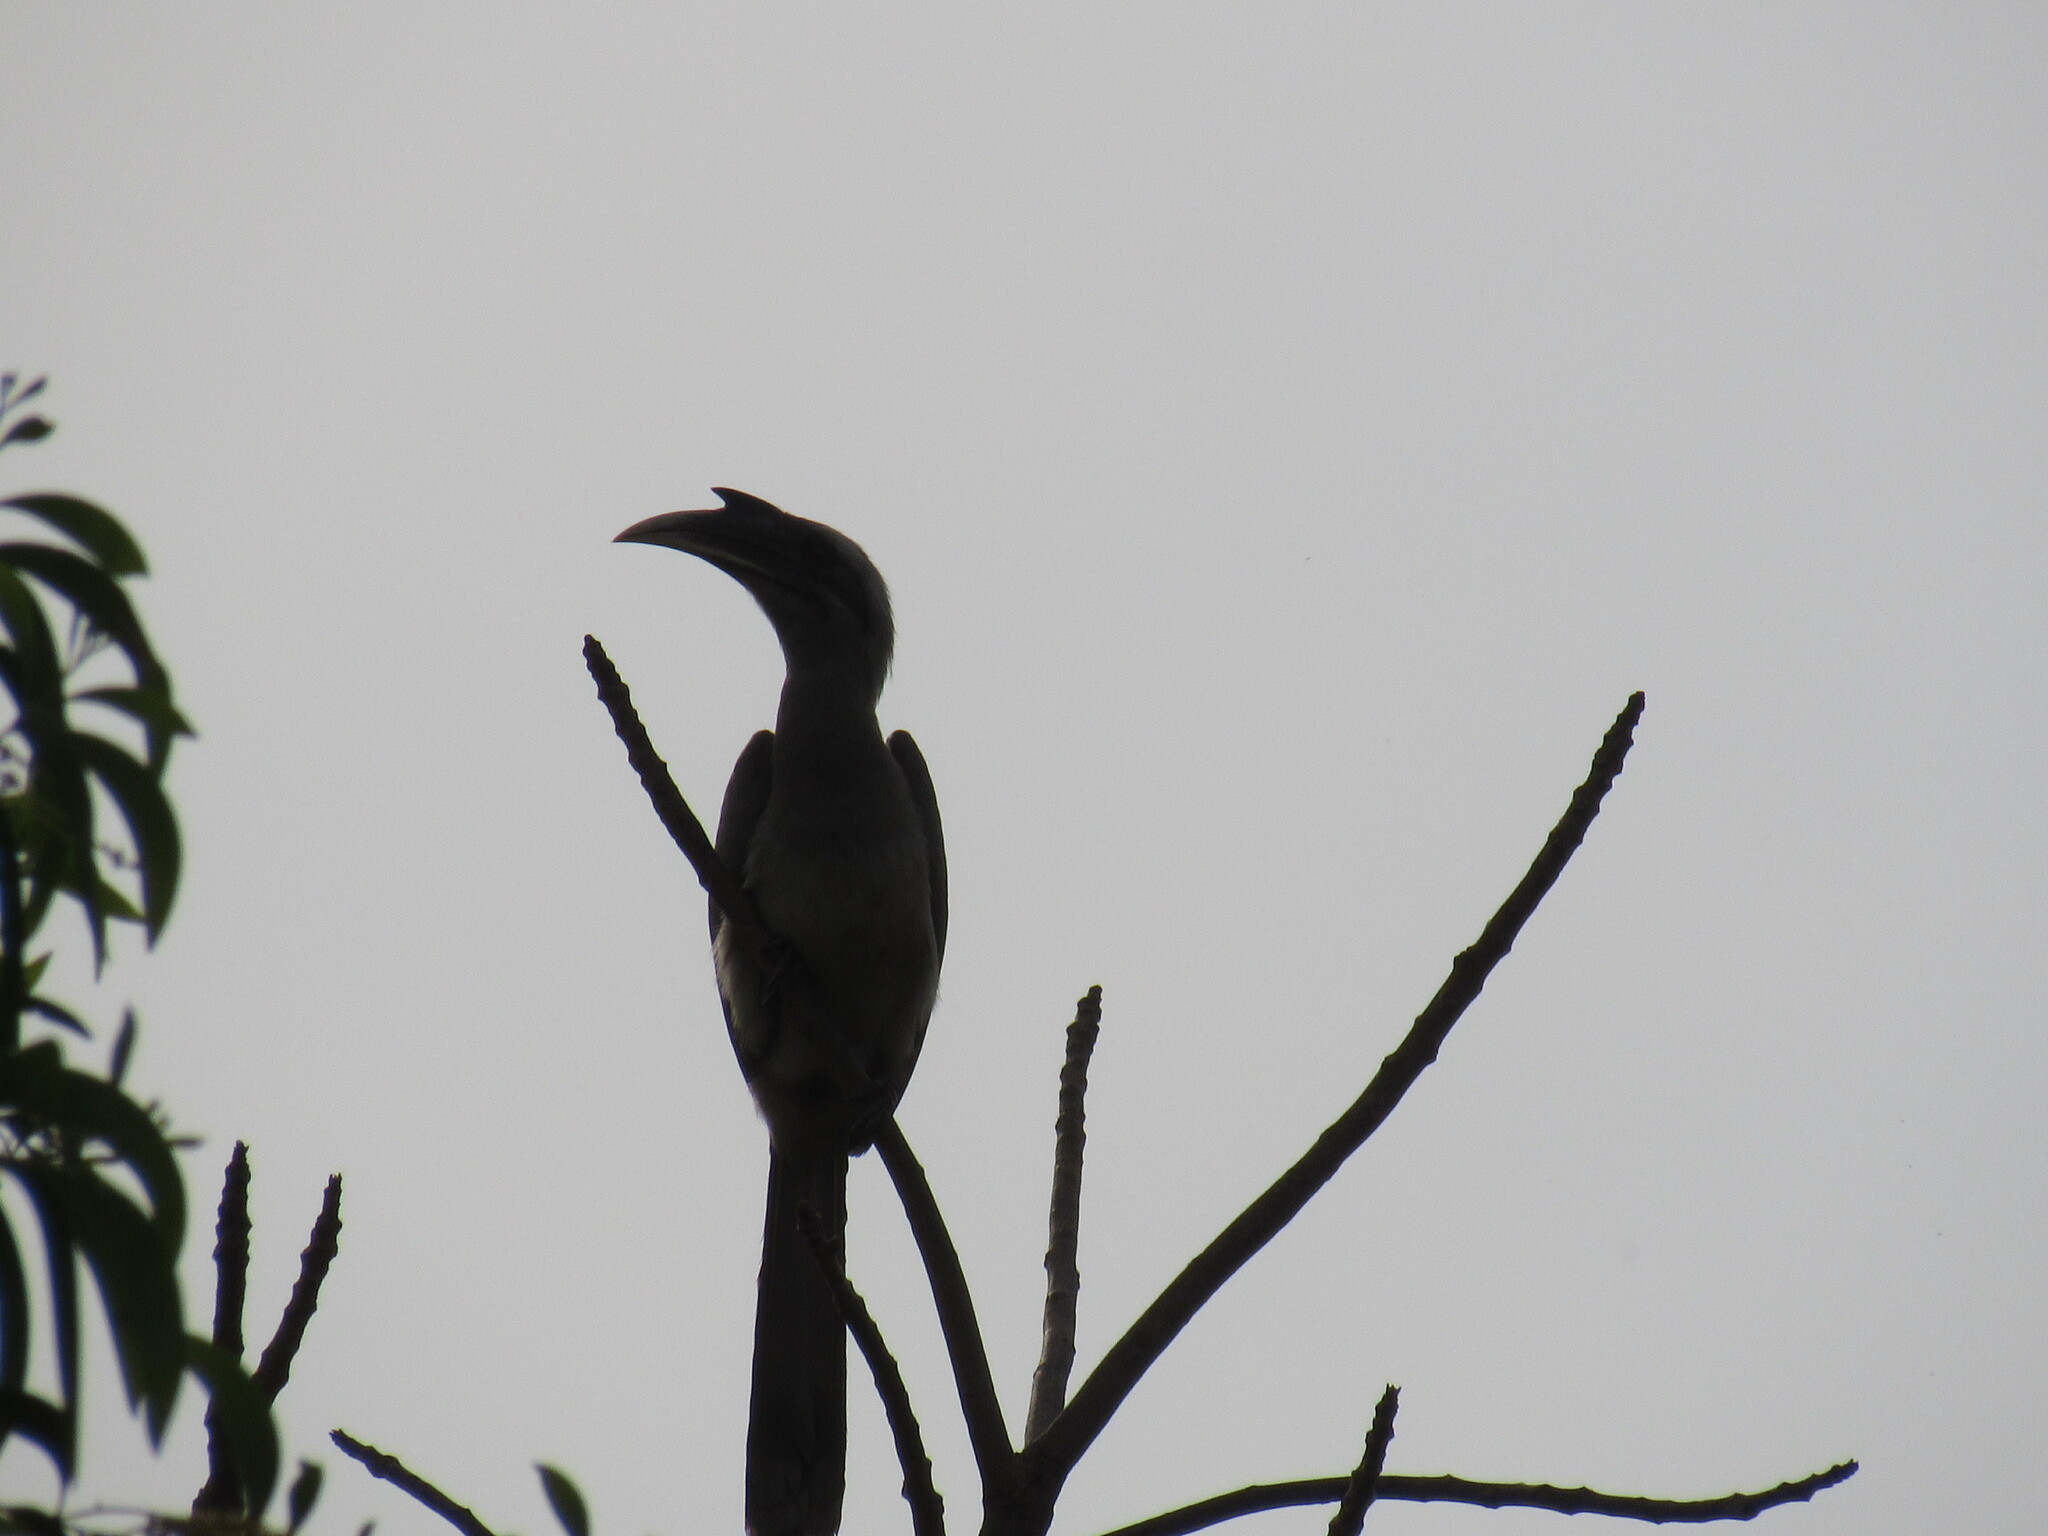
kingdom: Animalia
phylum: Chordata
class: Aves
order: Bucerotiformes
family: Bucerotidae
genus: Ocyceros
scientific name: Ocyceros birostris
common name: Indian grey hornbill
